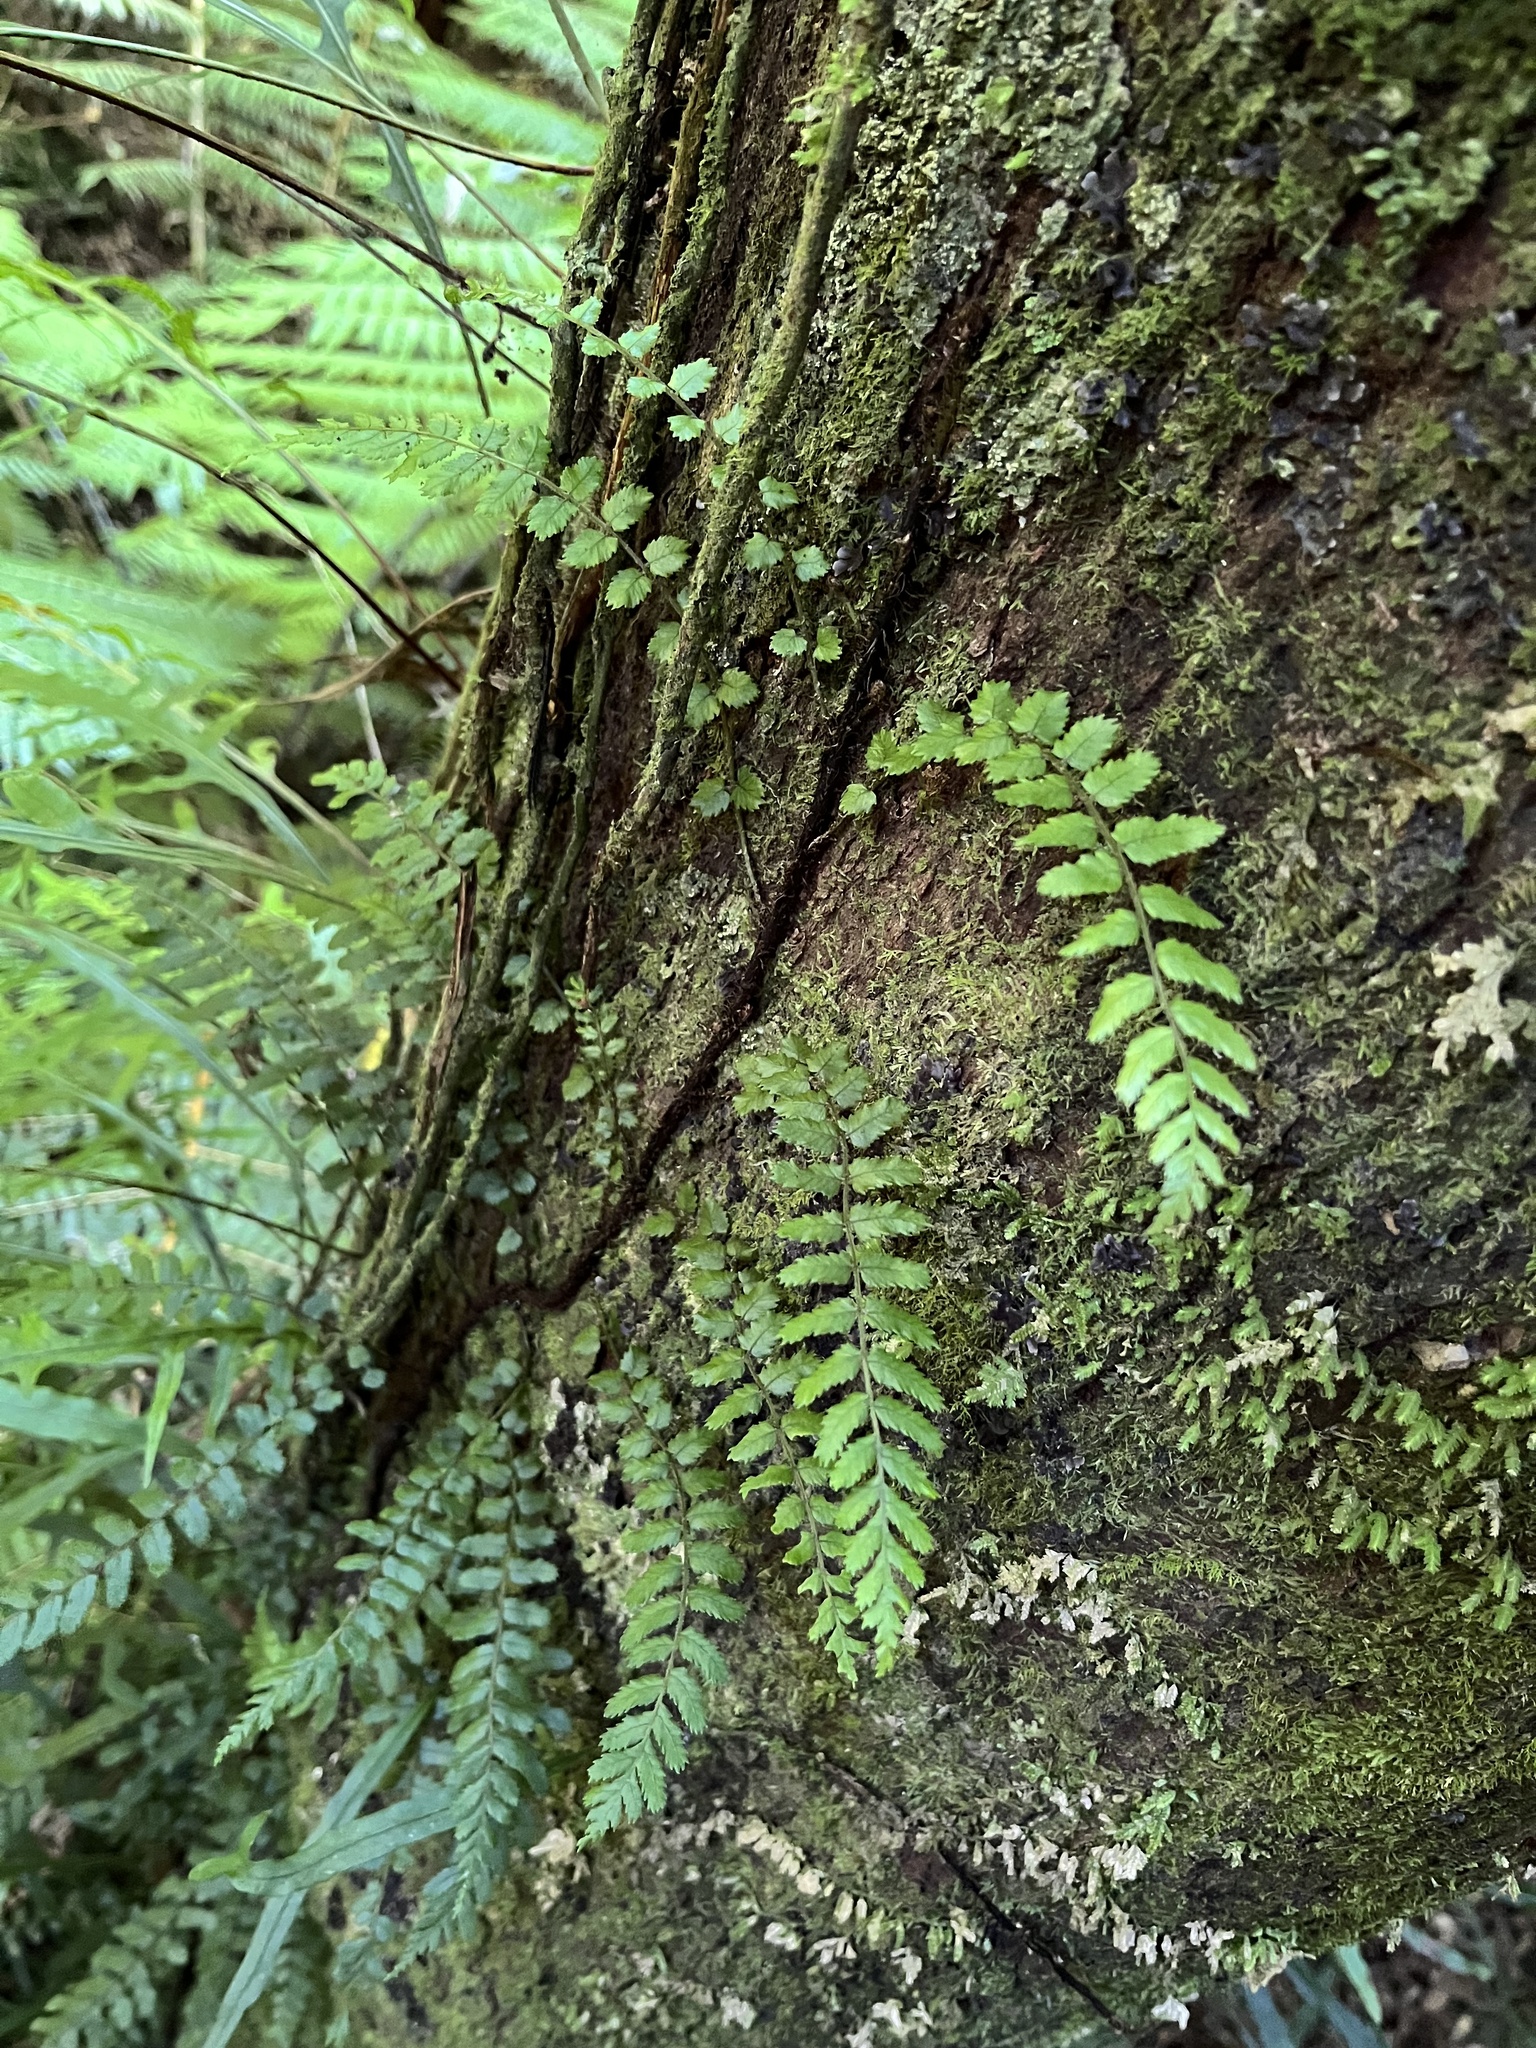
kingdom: Plantae
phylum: Tracheophyta
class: Polypodiopsida
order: Polypodiales
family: Blechnaceae
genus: Icarus
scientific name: Icarus filiformis
